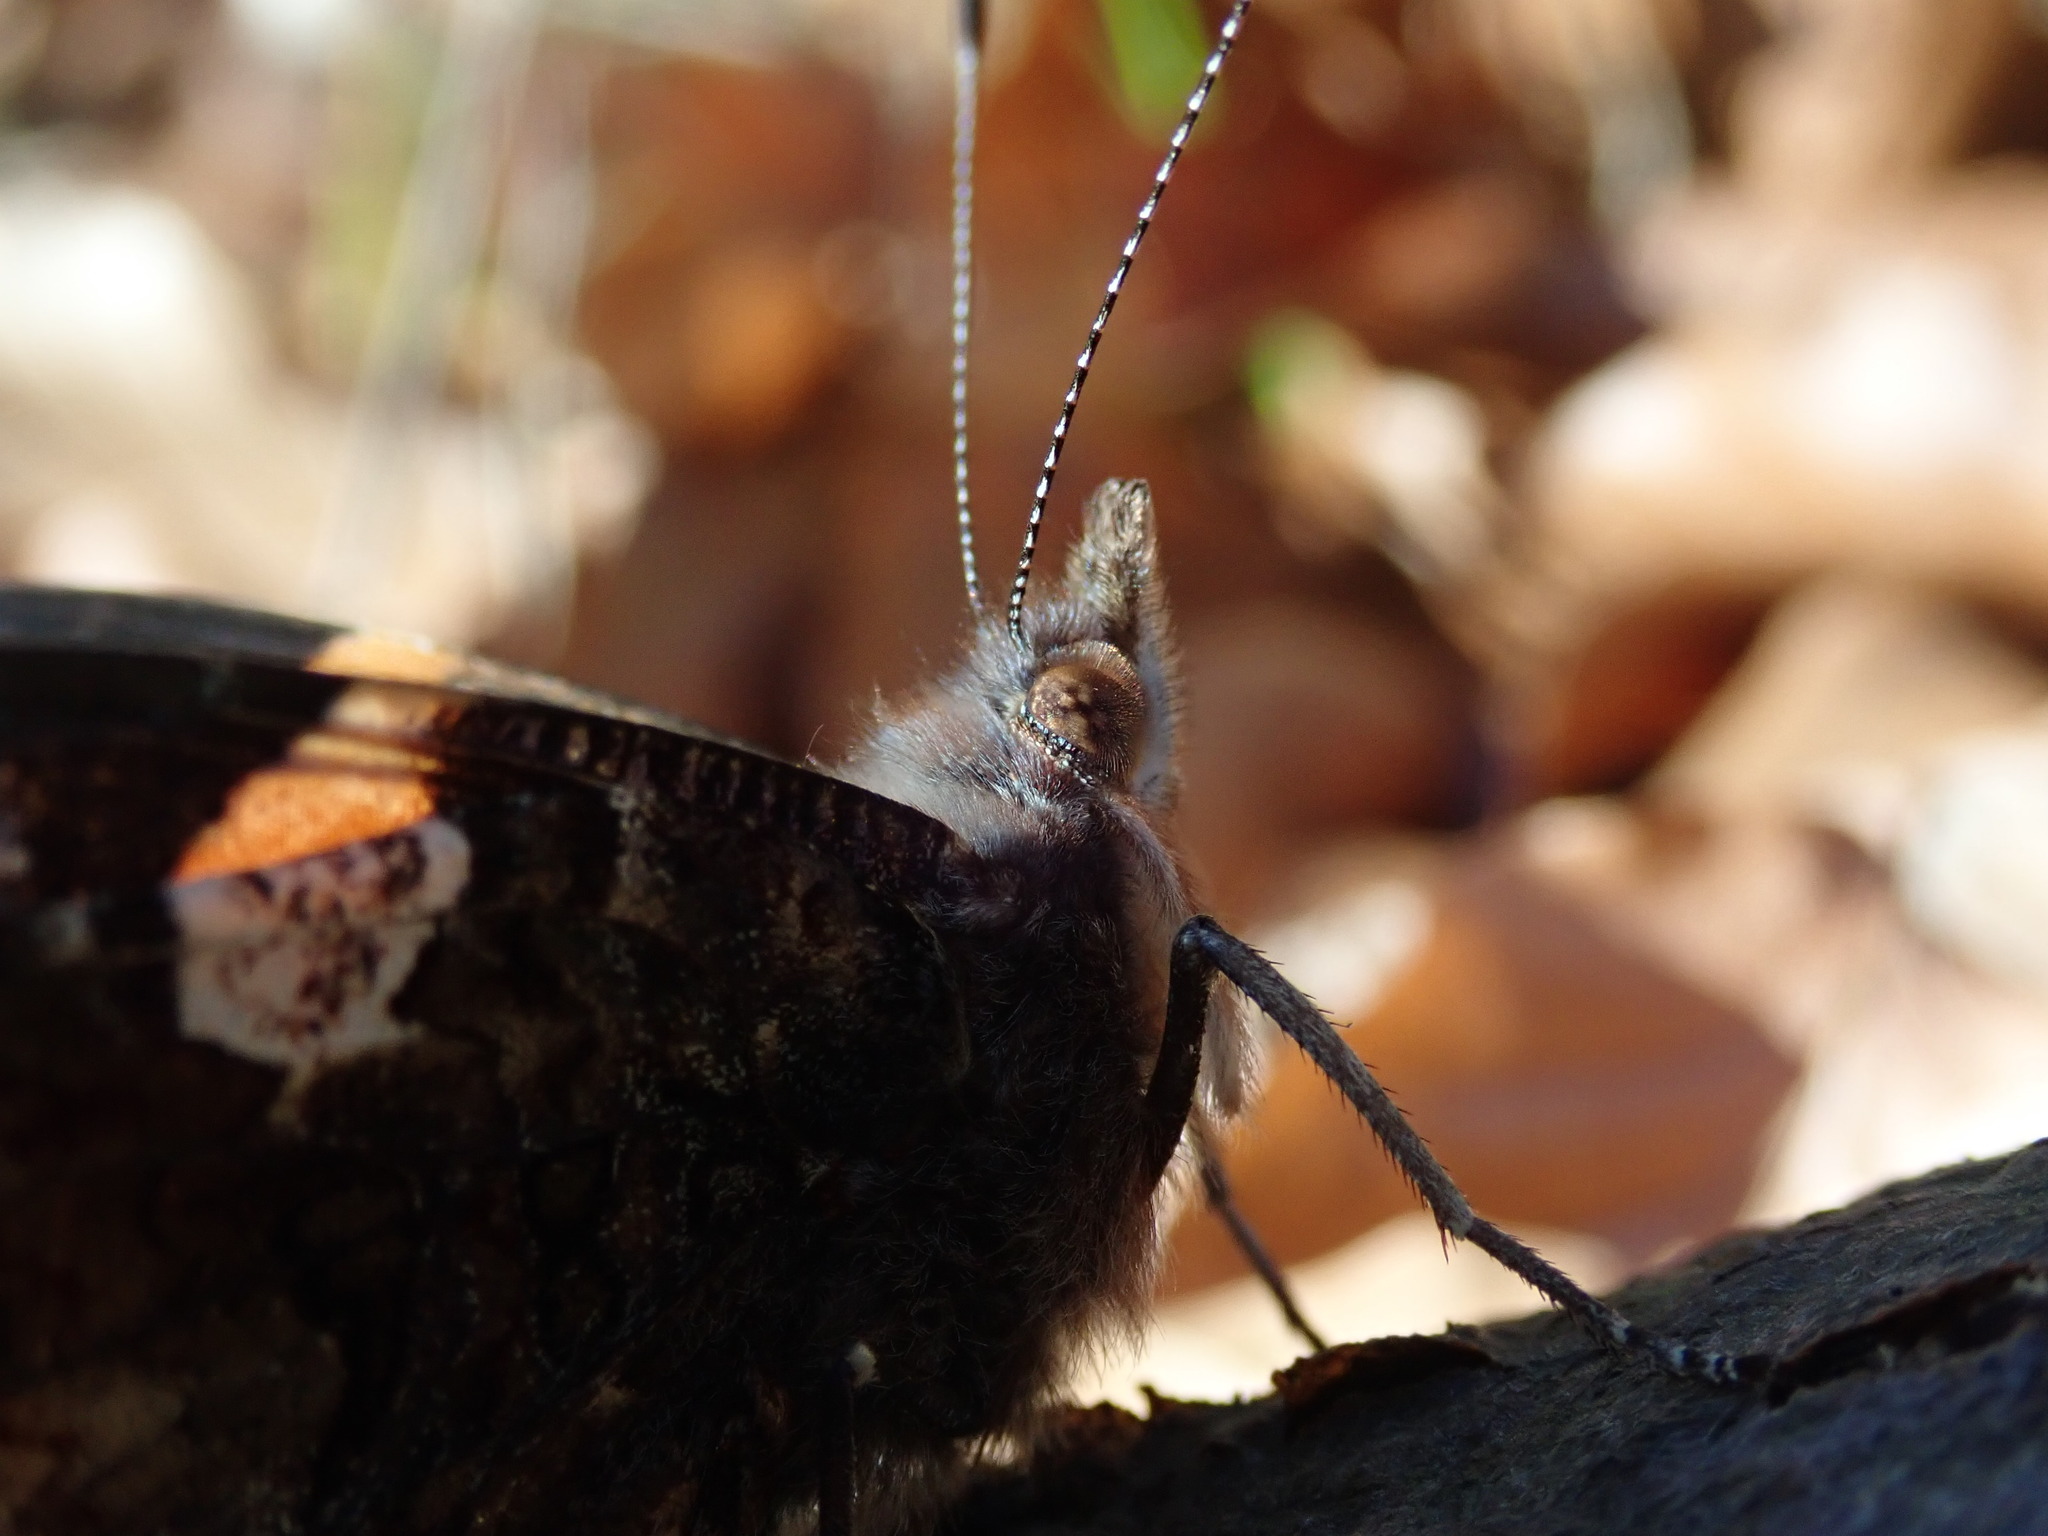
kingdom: Animalia
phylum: Arthropoda
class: Insecta
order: Lepidoptera
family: Nymphalidae
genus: Vanessa
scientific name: Vanessa atalanta
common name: Red admiral
